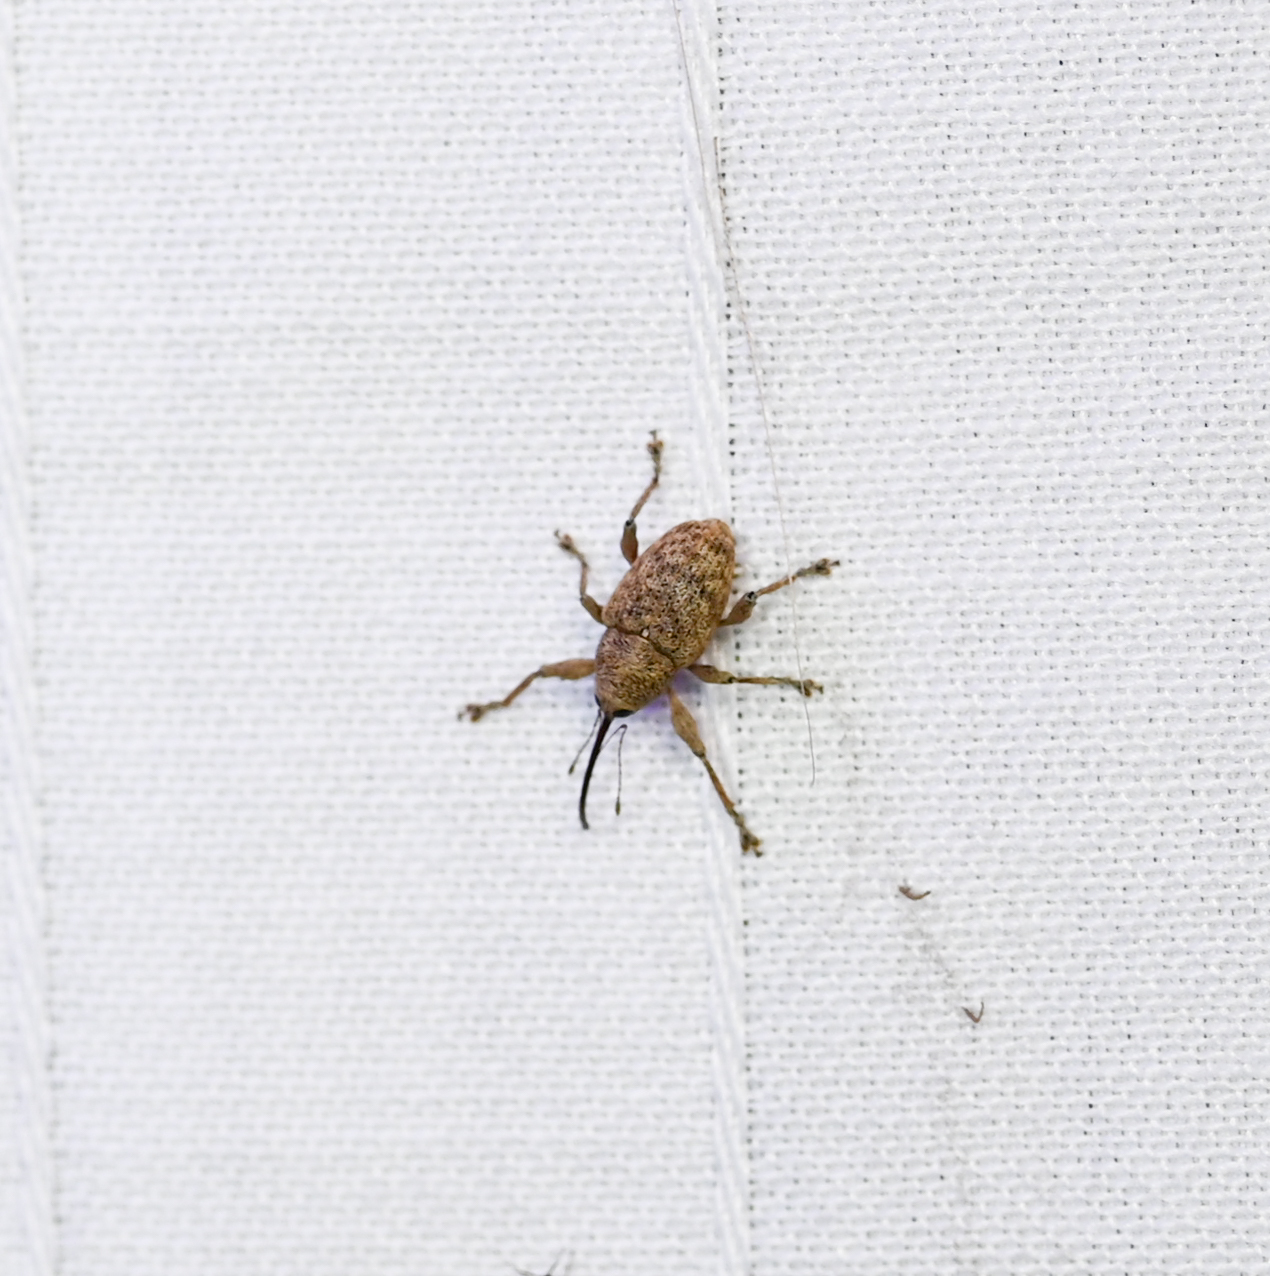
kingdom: Animalia
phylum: Arthropoda
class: Insecta
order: Coleoptera
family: Curculionidae
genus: Curculio
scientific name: Curculio
